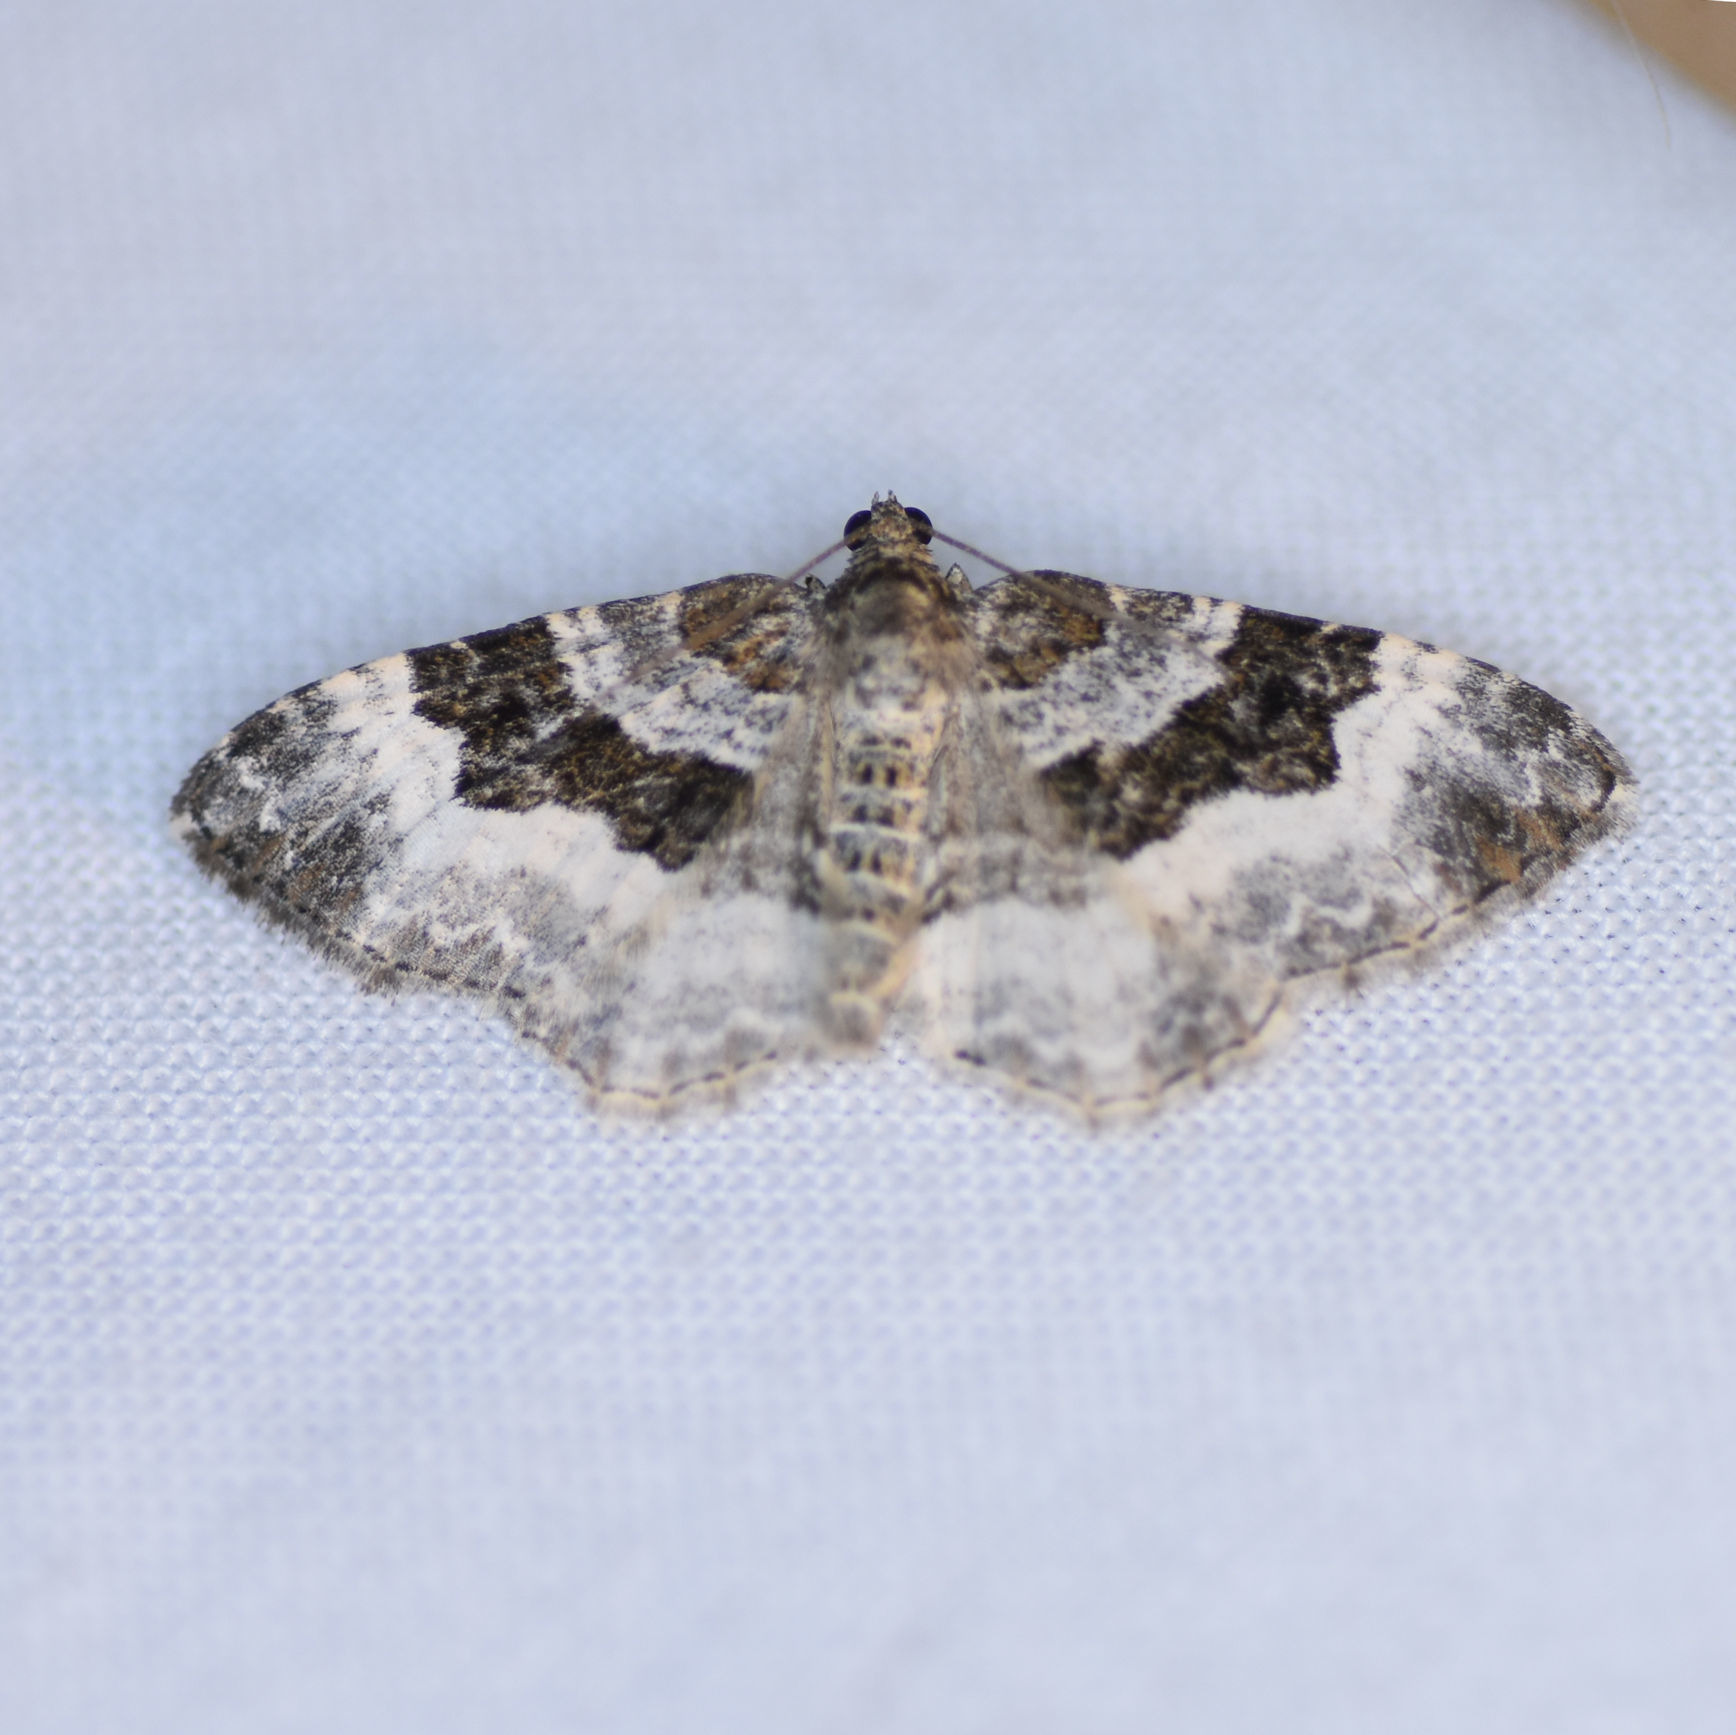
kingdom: Animalia
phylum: Arthropoda
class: Insecta
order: Lepidoptera
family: Geometridae
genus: Epirrhoe
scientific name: Epirrhoe alternata
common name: Common carpet
